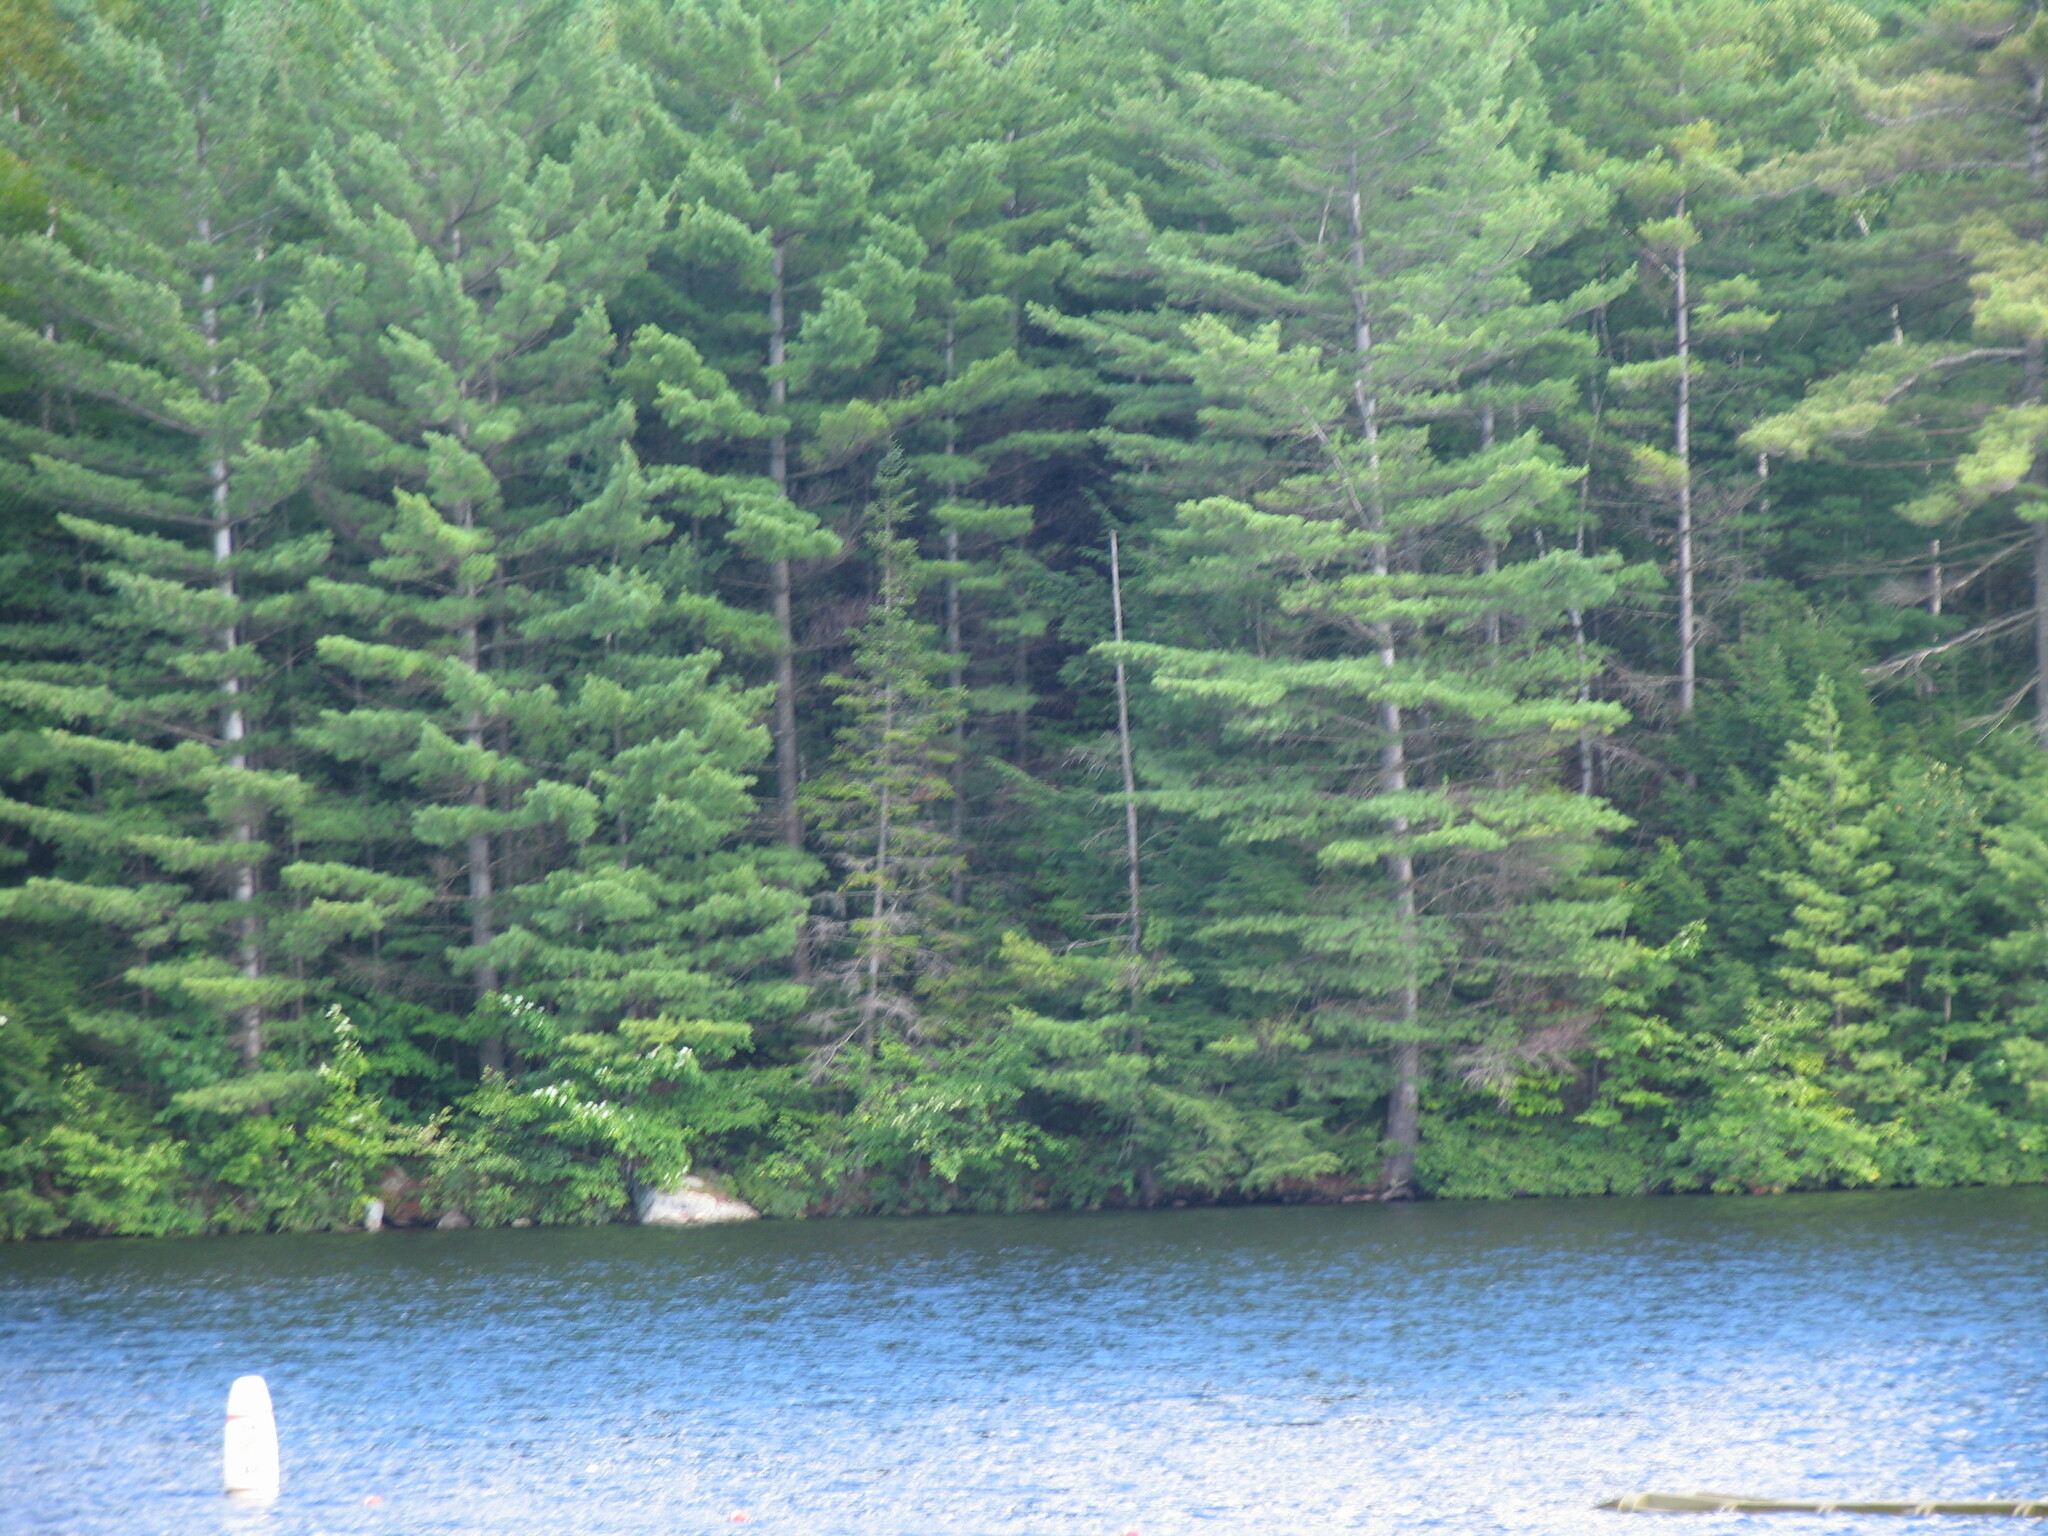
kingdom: Plantae
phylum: Tracheophyta
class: Pinopsida
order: Pinales
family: Pinaceae
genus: Pinus
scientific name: Pinus strobus
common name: Weymouth pine
